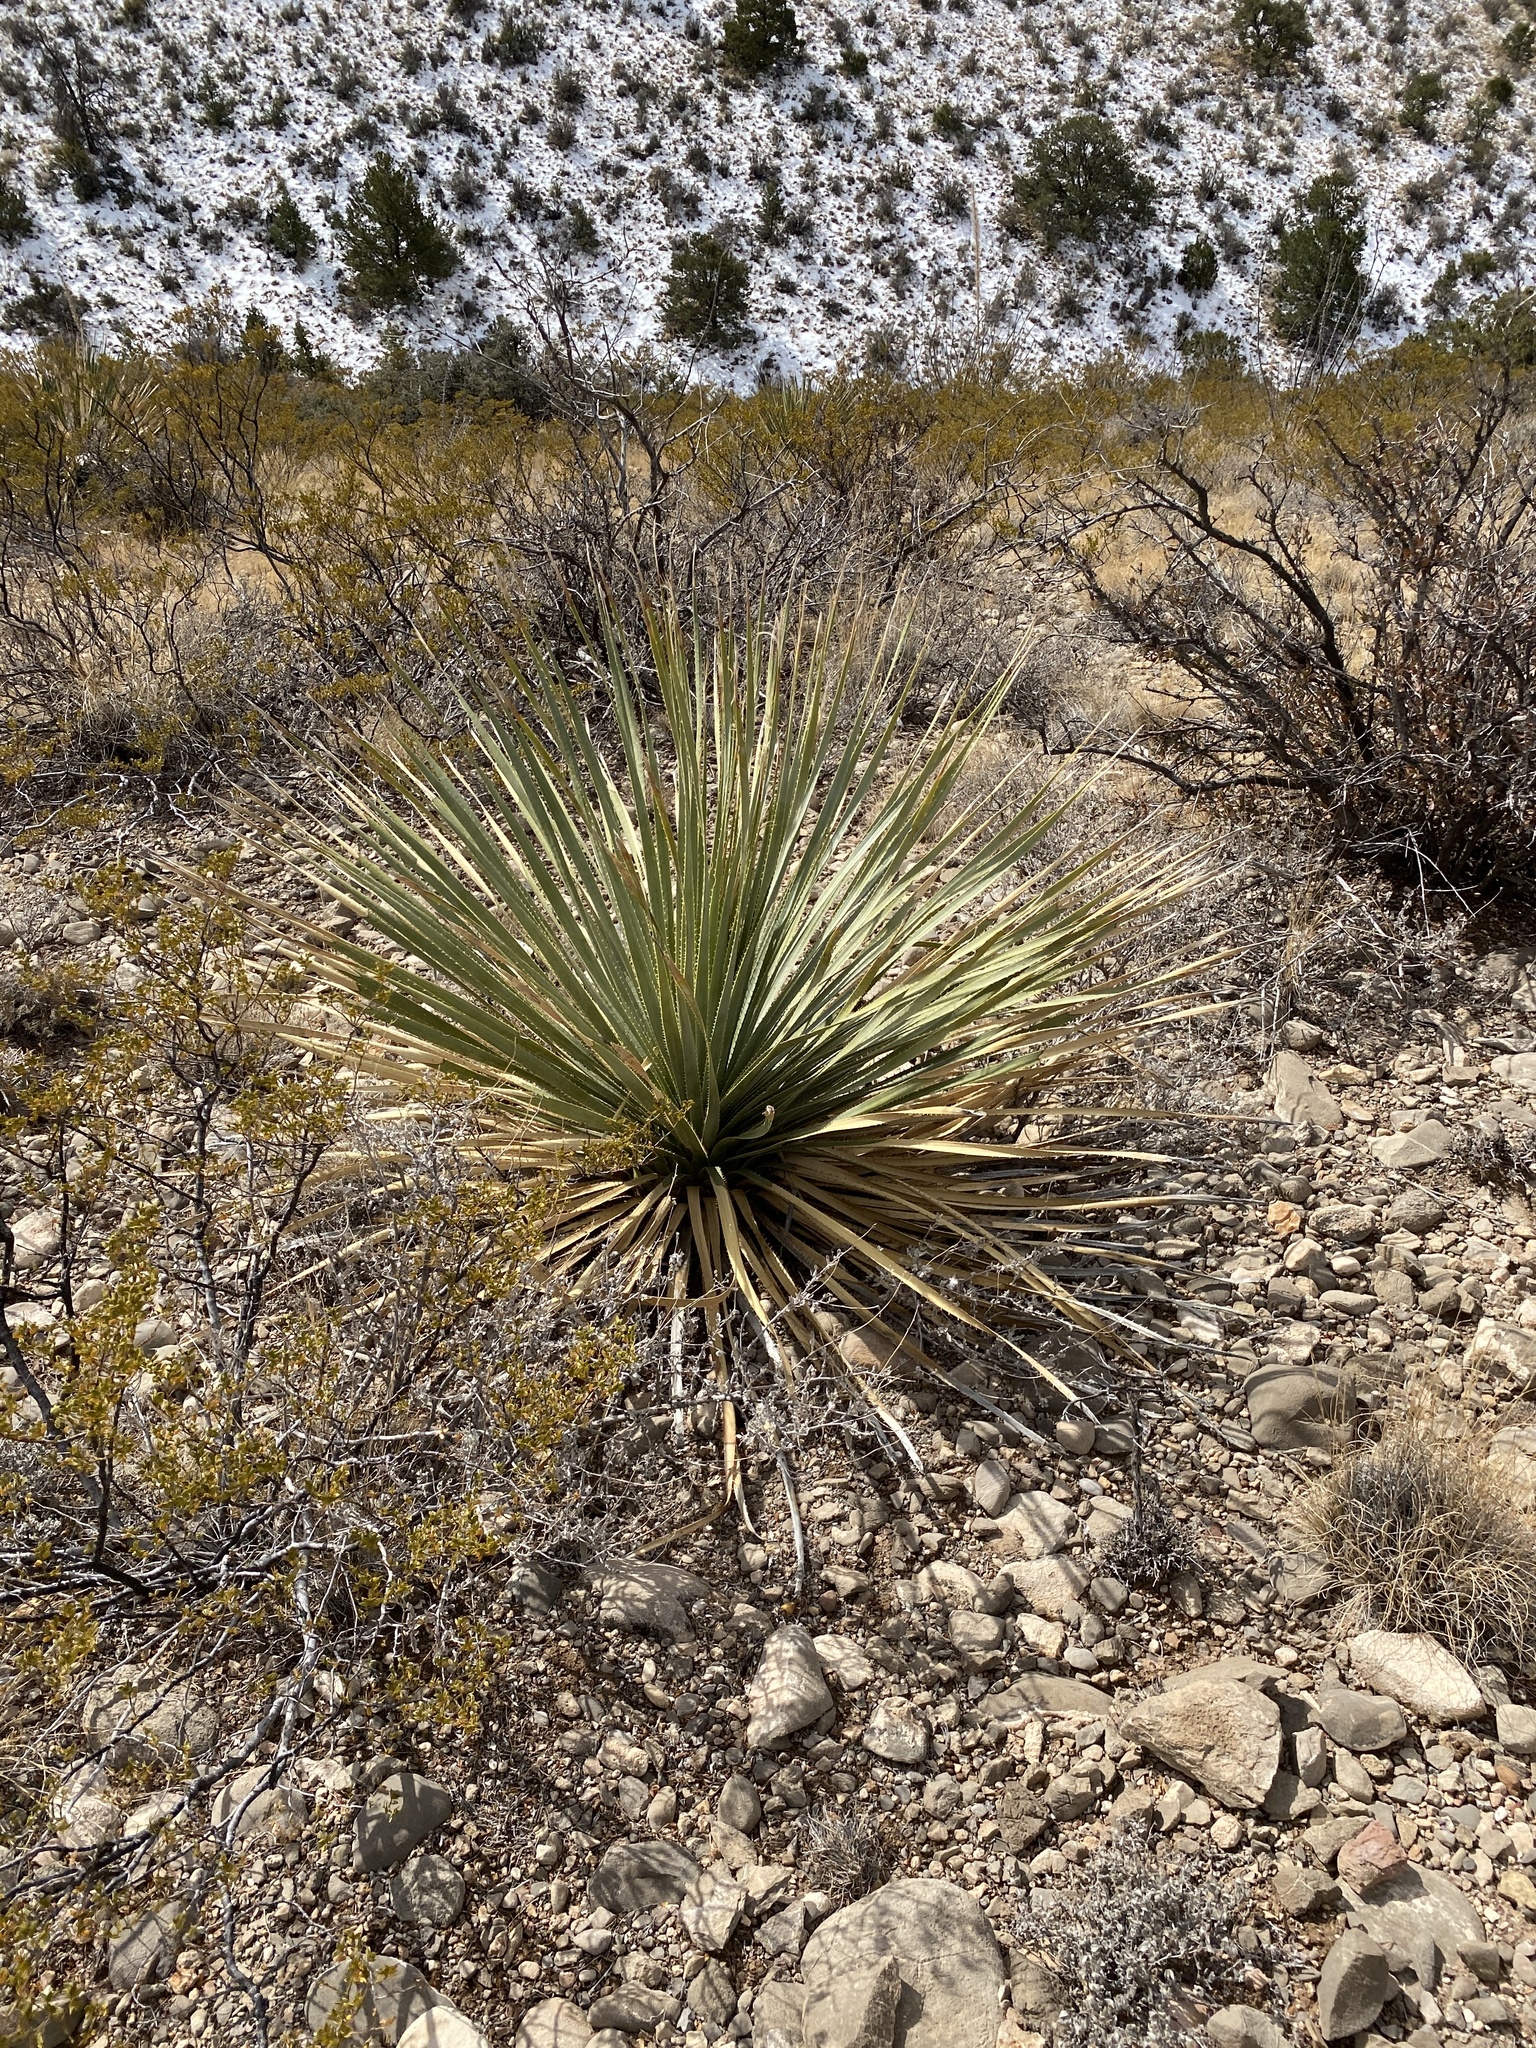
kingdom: Plantae
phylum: Tracheophyta
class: Liliopsida
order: Asparagales
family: Asparagaceae
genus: Dasylirion
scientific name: Dasylirion wheeleri
